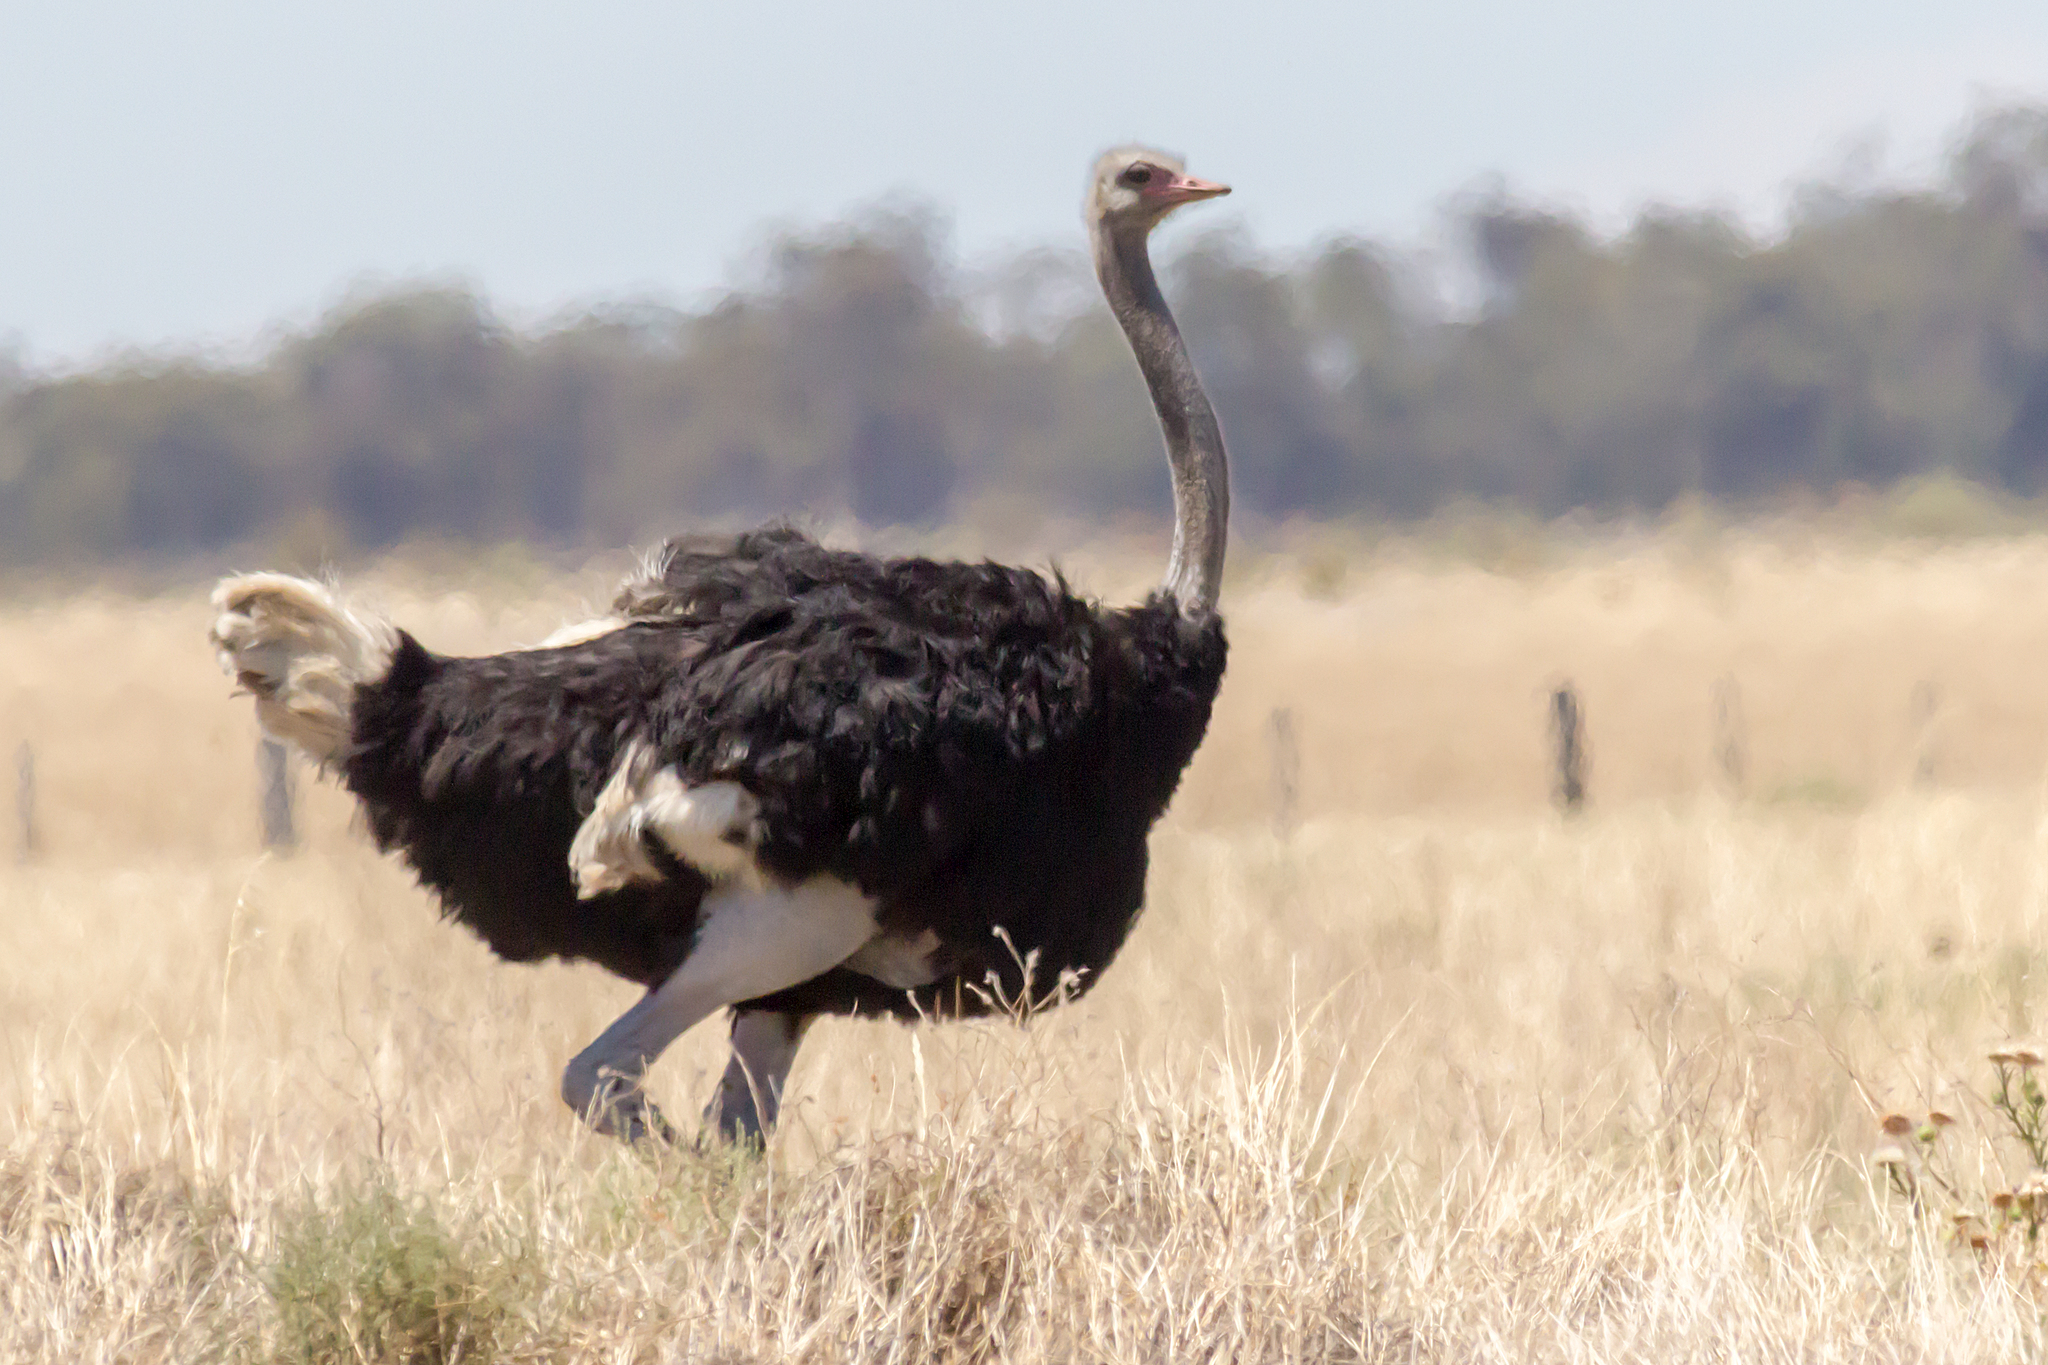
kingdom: Animalia
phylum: Chordata
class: Aves
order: Struthioniformes
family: Struthionidae
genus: Struthio
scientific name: Struthio camelus
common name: Common ostrich
